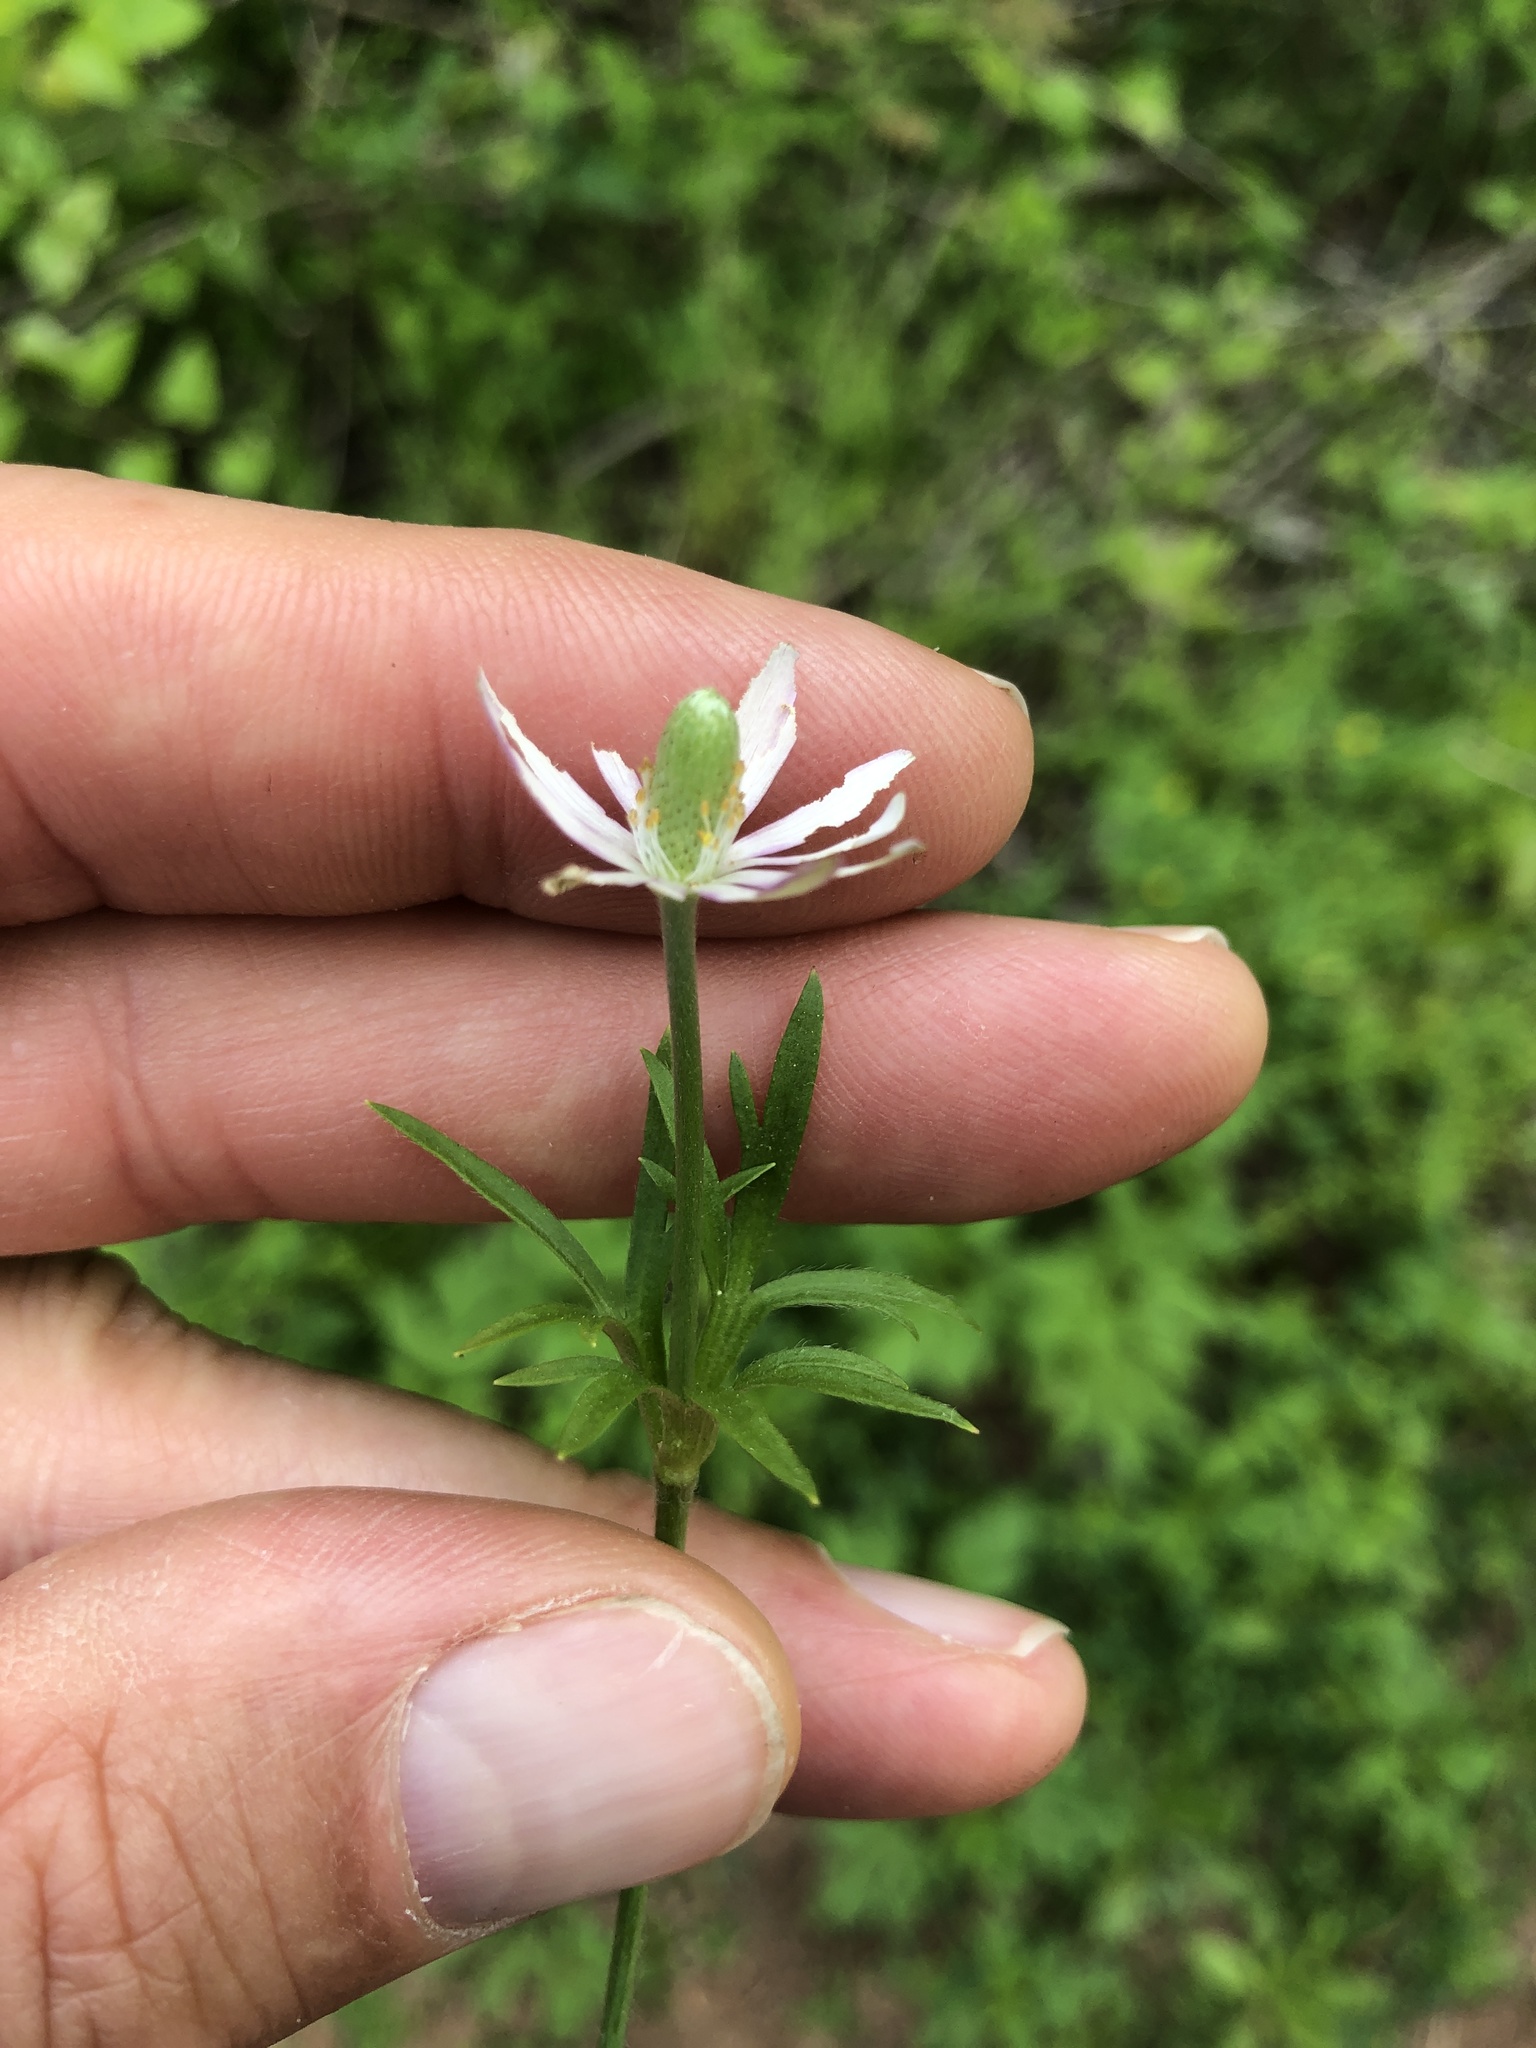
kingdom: Plantae
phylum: Tracheophyta
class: Magnoliopsida
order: Ranunculales
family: Ranunculaceae
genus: Anemone
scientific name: Anemone berlandieri
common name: Ten-petal anemone
